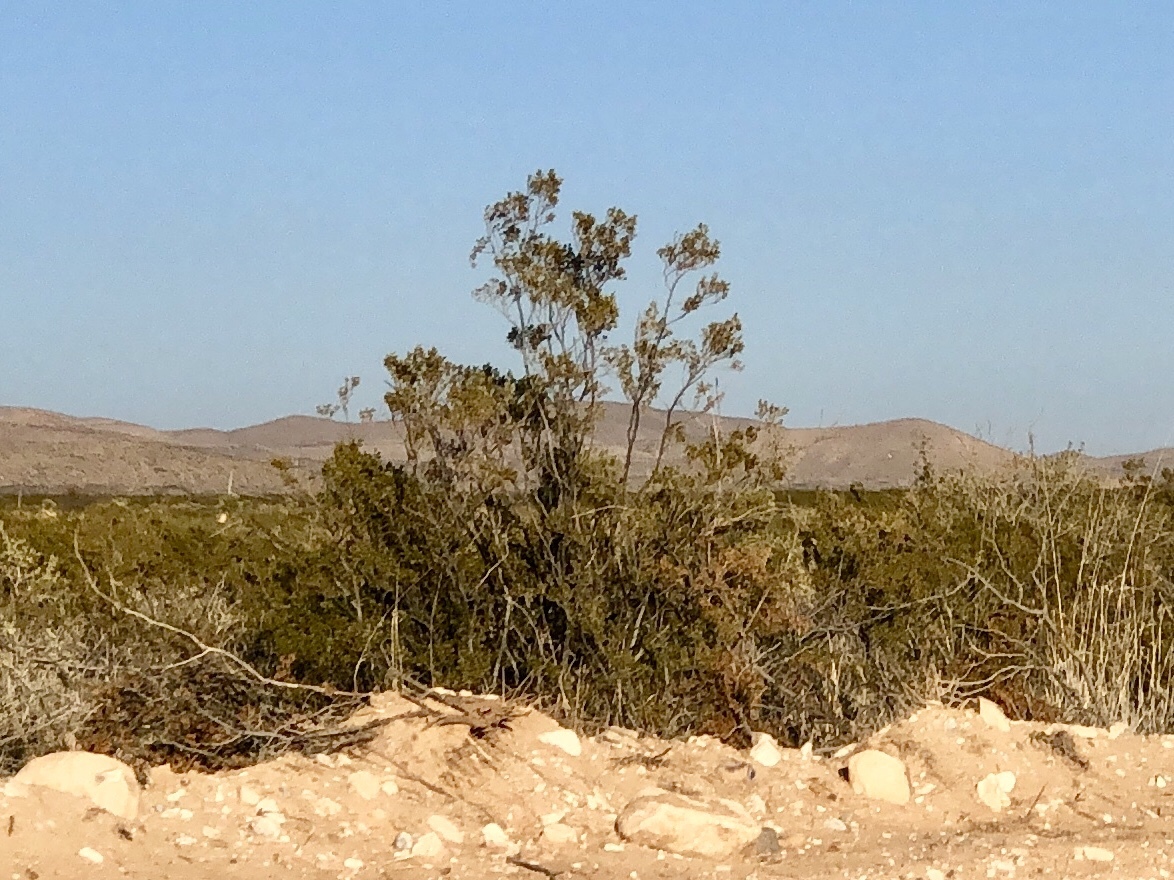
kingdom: Plantae
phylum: Tracheophyta
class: Magnoliopsida
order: Zygophyllales
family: Zygophyllaceae
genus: Larrea
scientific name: Larrea tridentata
